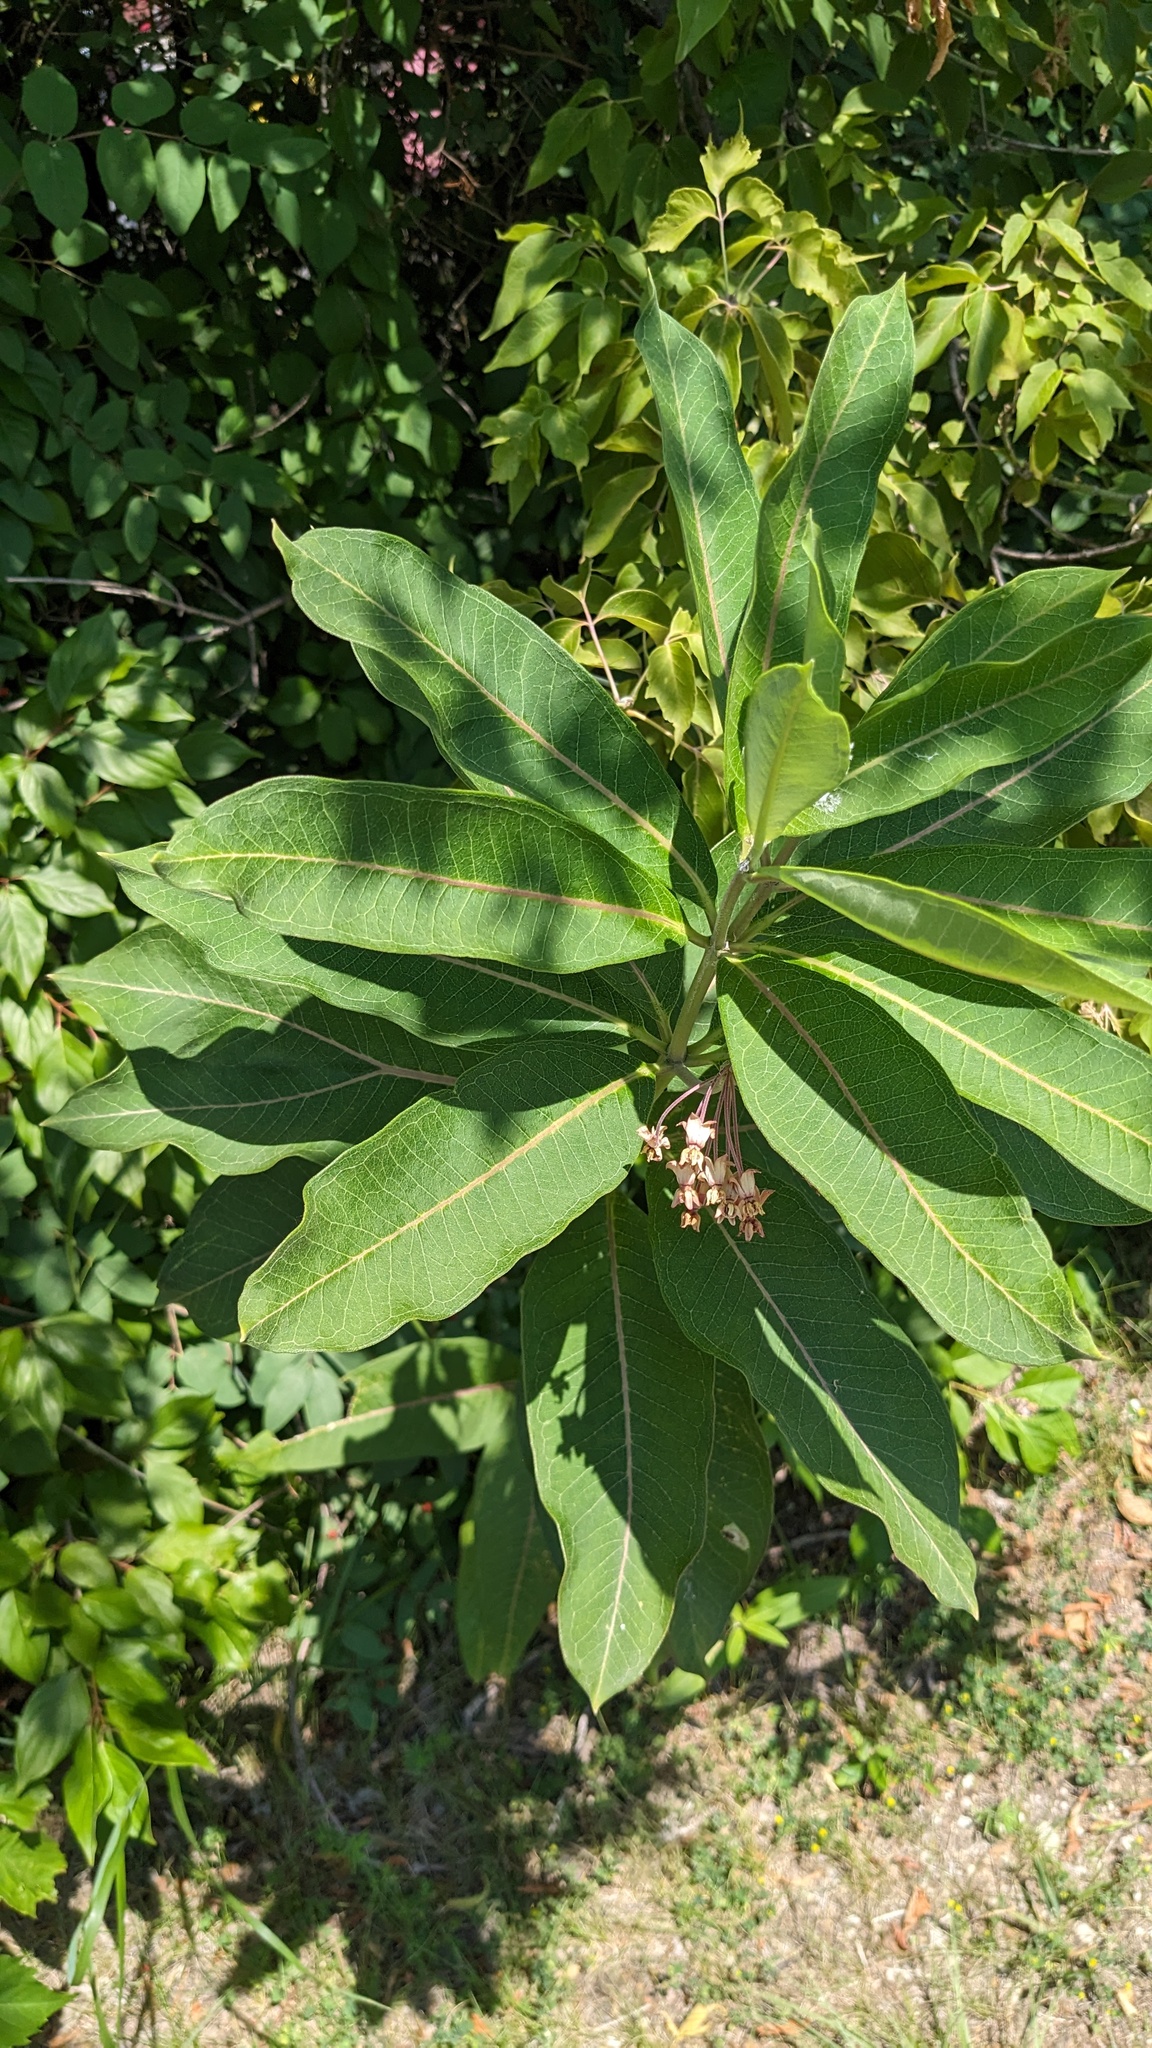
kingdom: Plantae
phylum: Tracheophyta
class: Magnoliopsida
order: Gentianales
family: Apocynaceae
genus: Asclepias
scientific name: Asclepias syriaca
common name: Common milkweed
